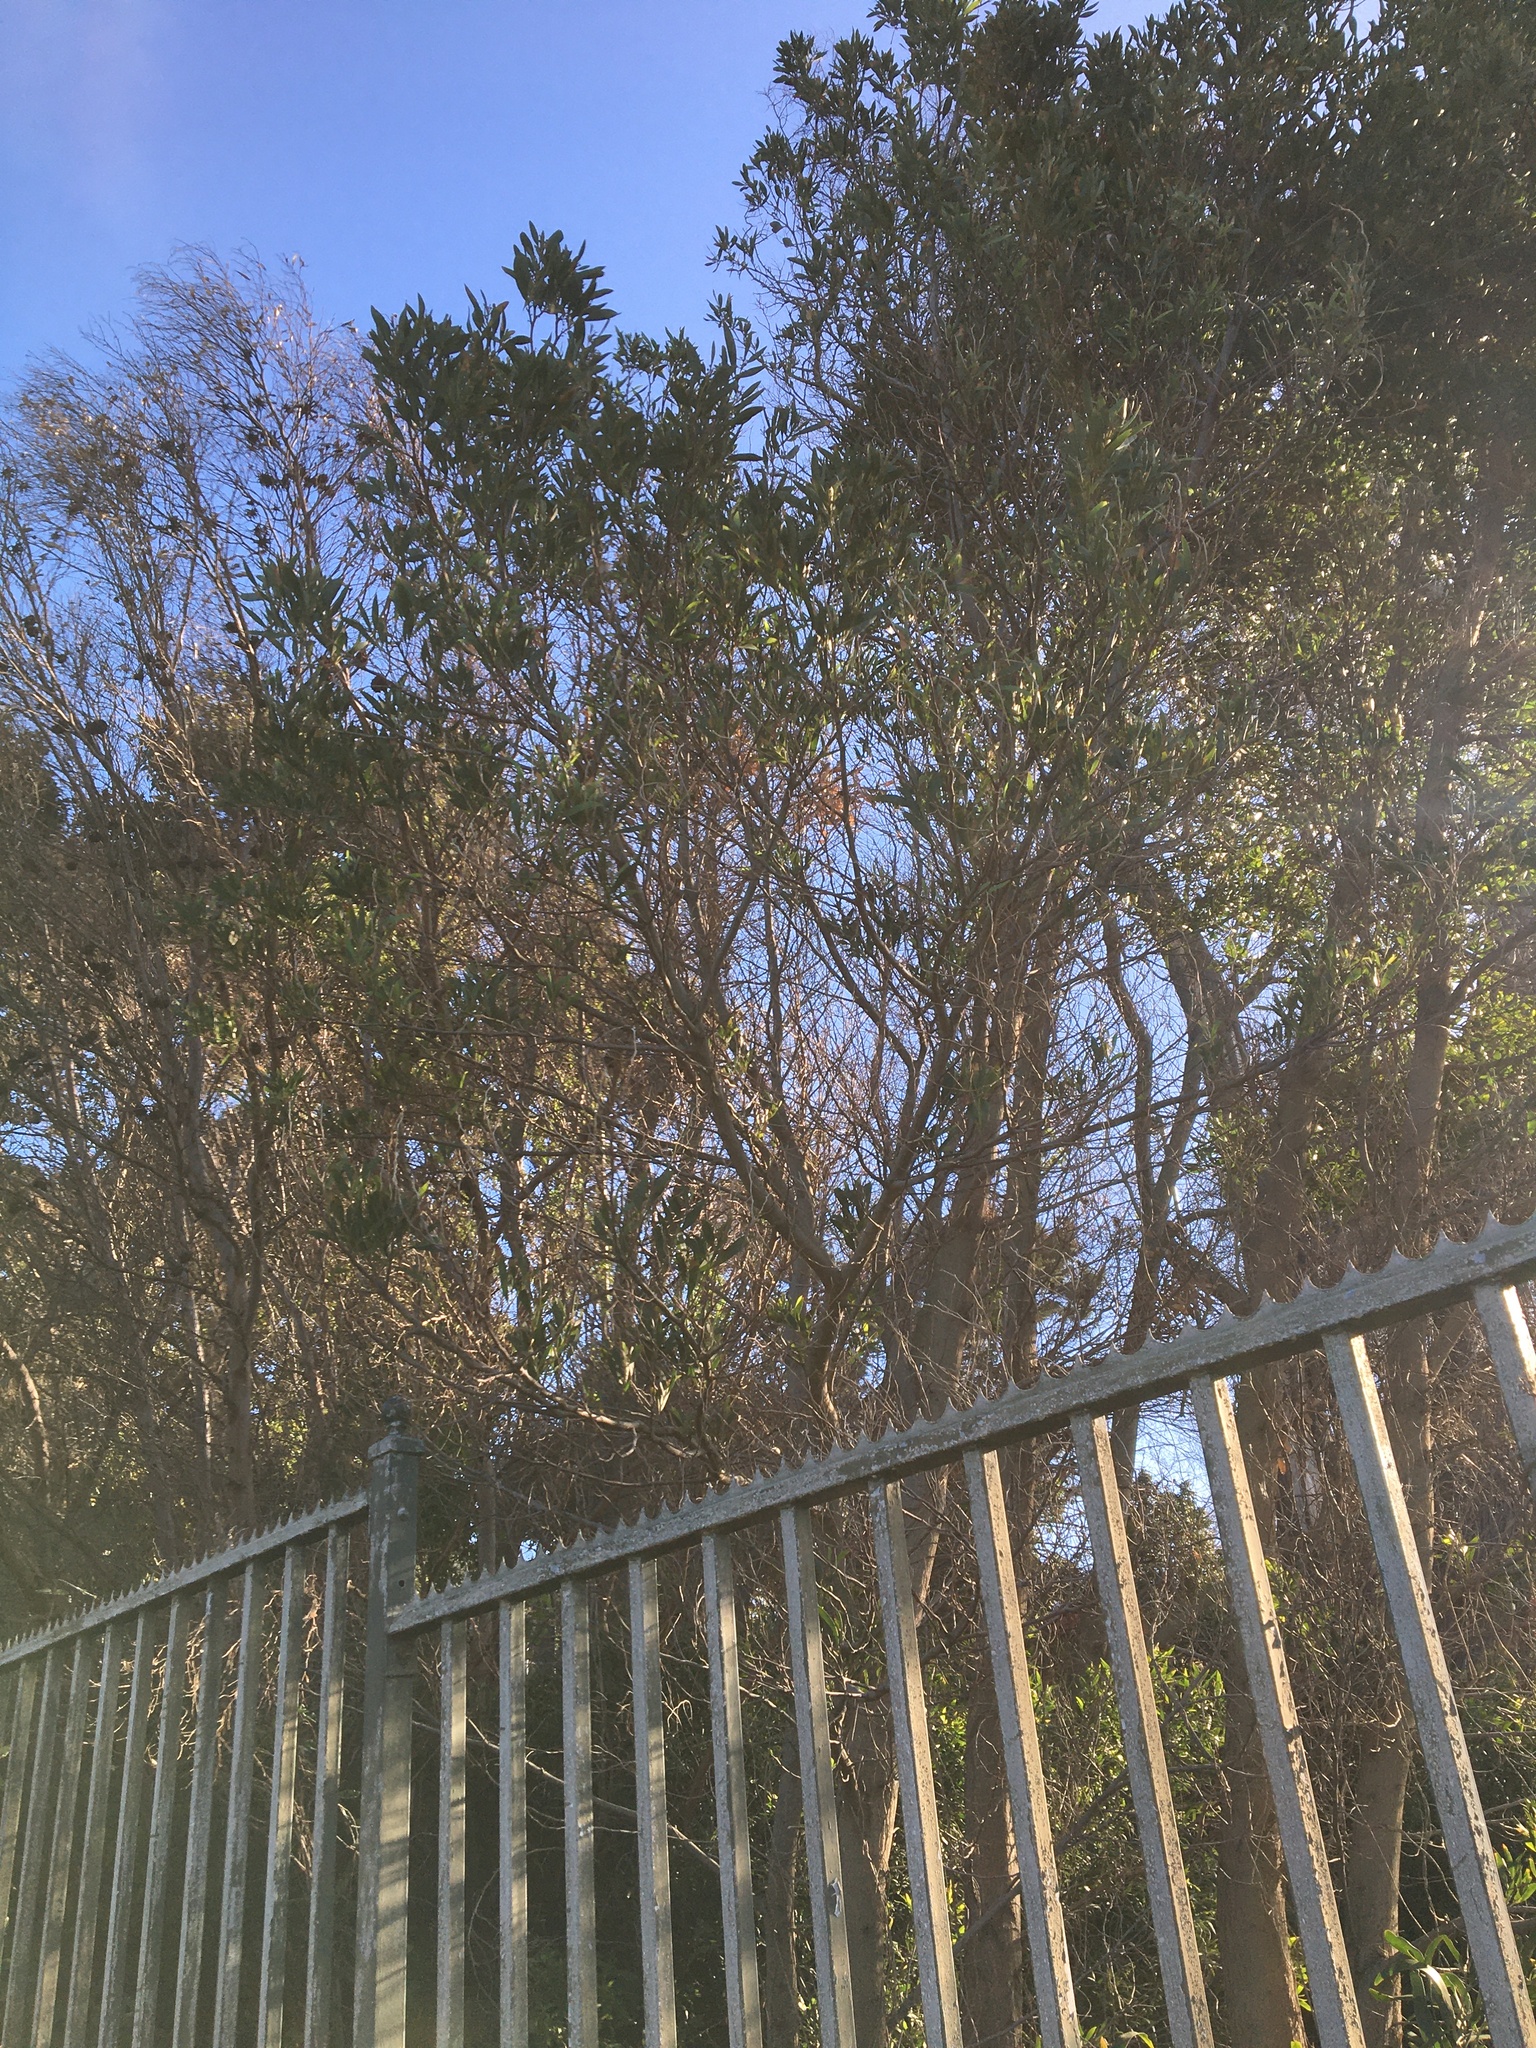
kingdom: Plantae
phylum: Tracheophyta
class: Magnoliopsida
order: Fabales
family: Fabaceae
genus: Acacia
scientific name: Acacia melanoxylon
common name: Blackwood
